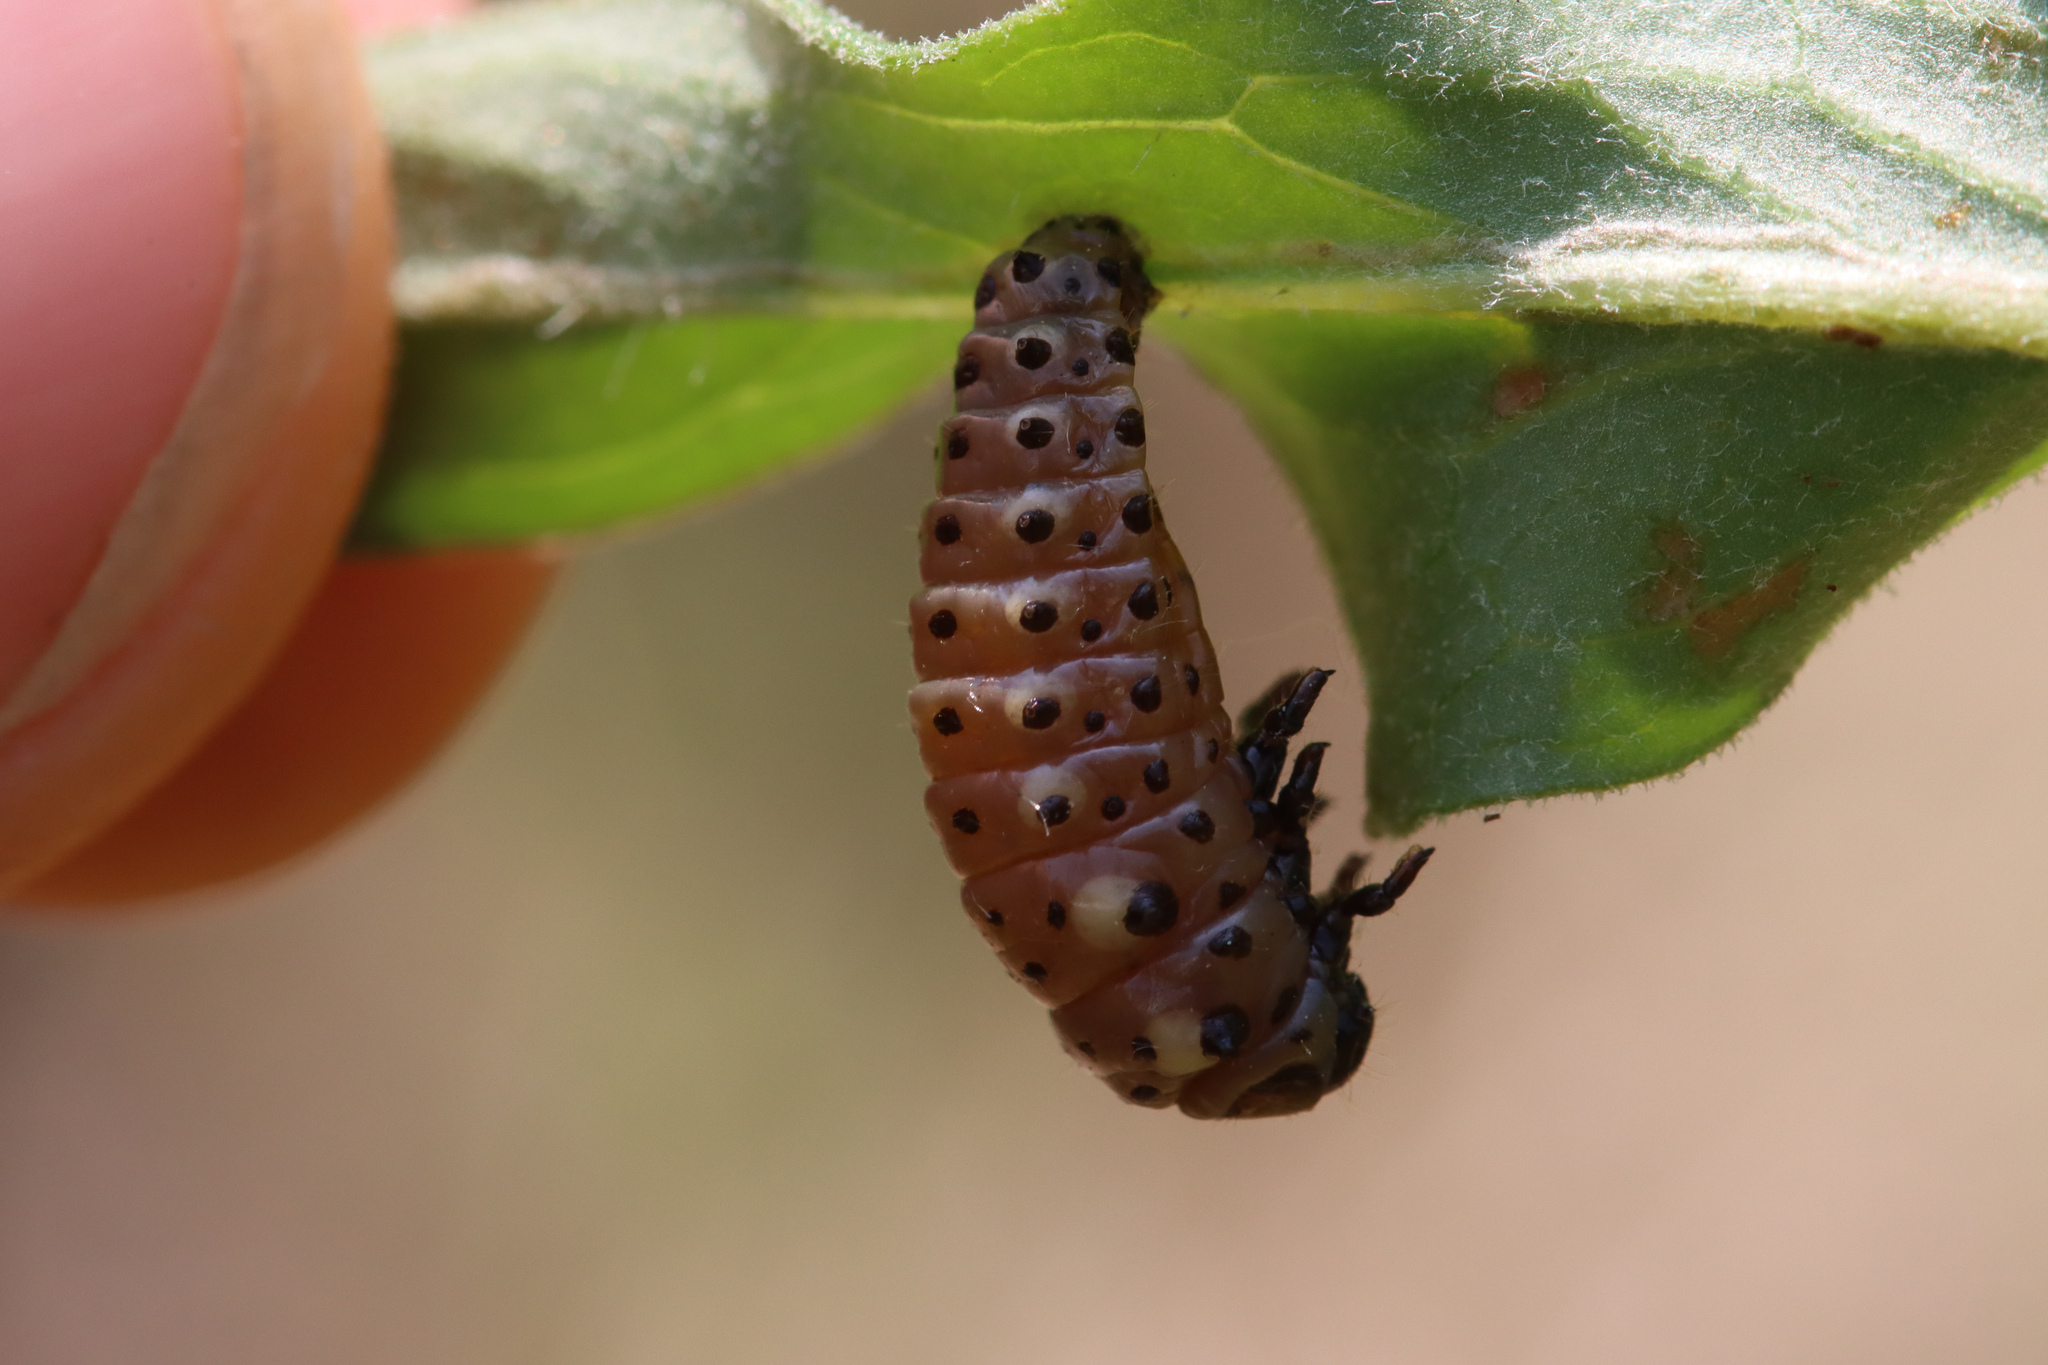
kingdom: Animalia
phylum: Arthropoda
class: Insecta
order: Coleoptera
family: Chrysomelidae
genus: Chrysomela
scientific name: Chrysomela populi
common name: Red poplar leaf beetle
